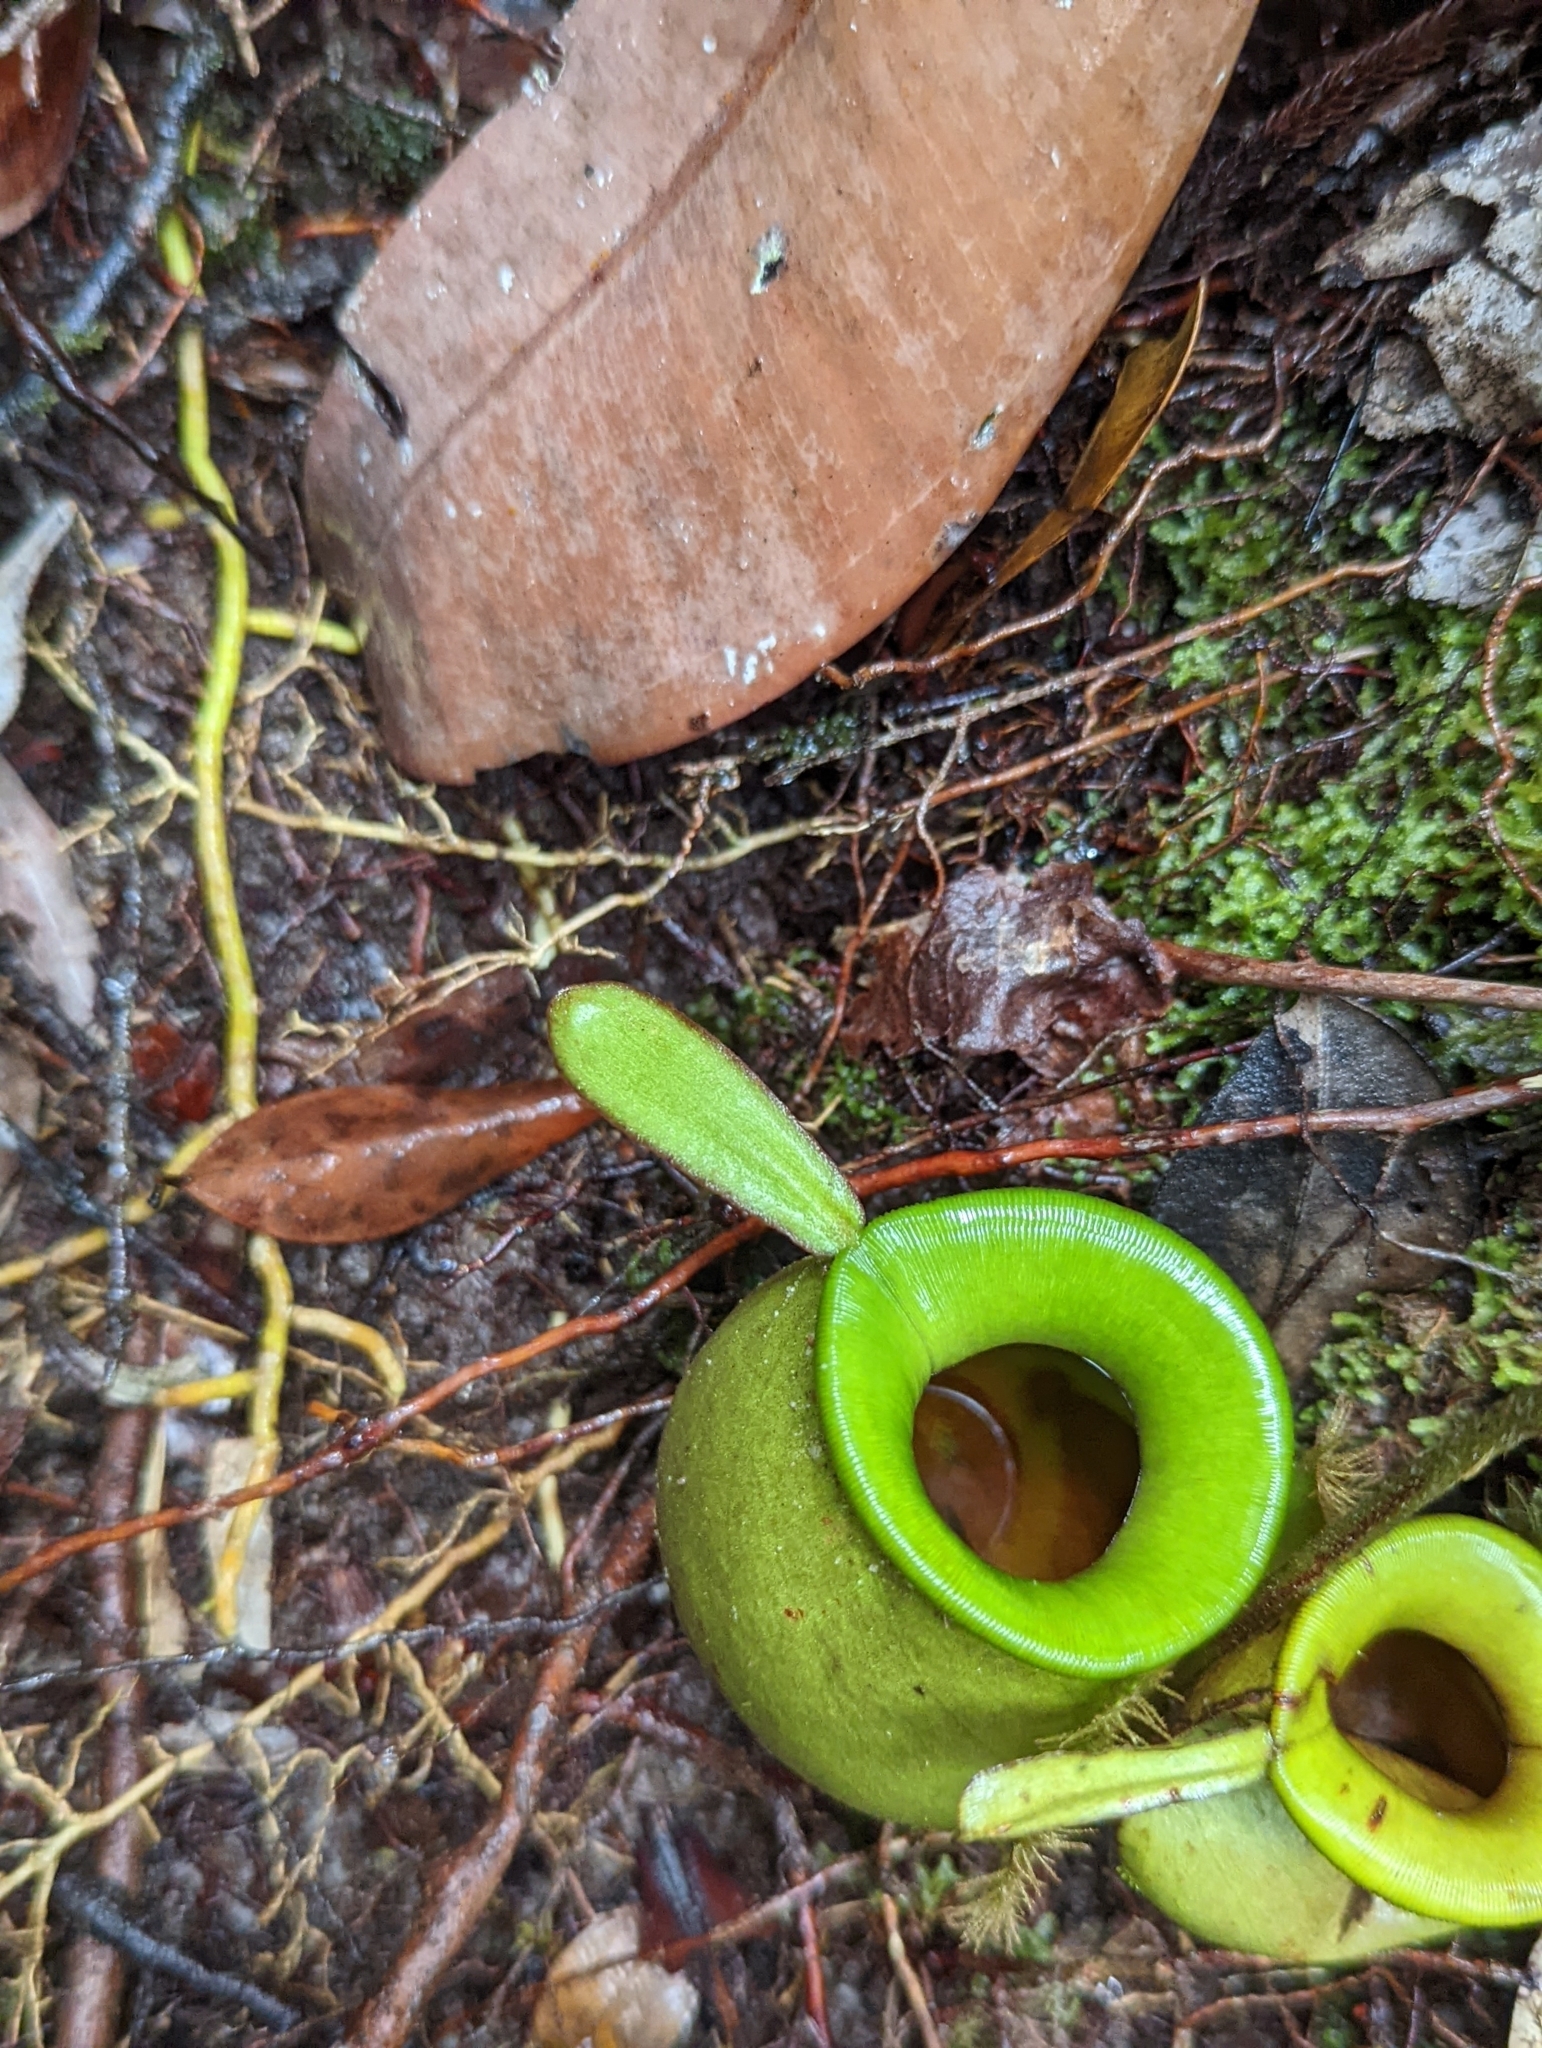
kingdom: Plantae
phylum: Tracheophyta
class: Magnoliopsida
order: Caryophyllales
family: Nepenthaceae
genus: Nepenthes
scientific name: Nepenthes ampullaria
